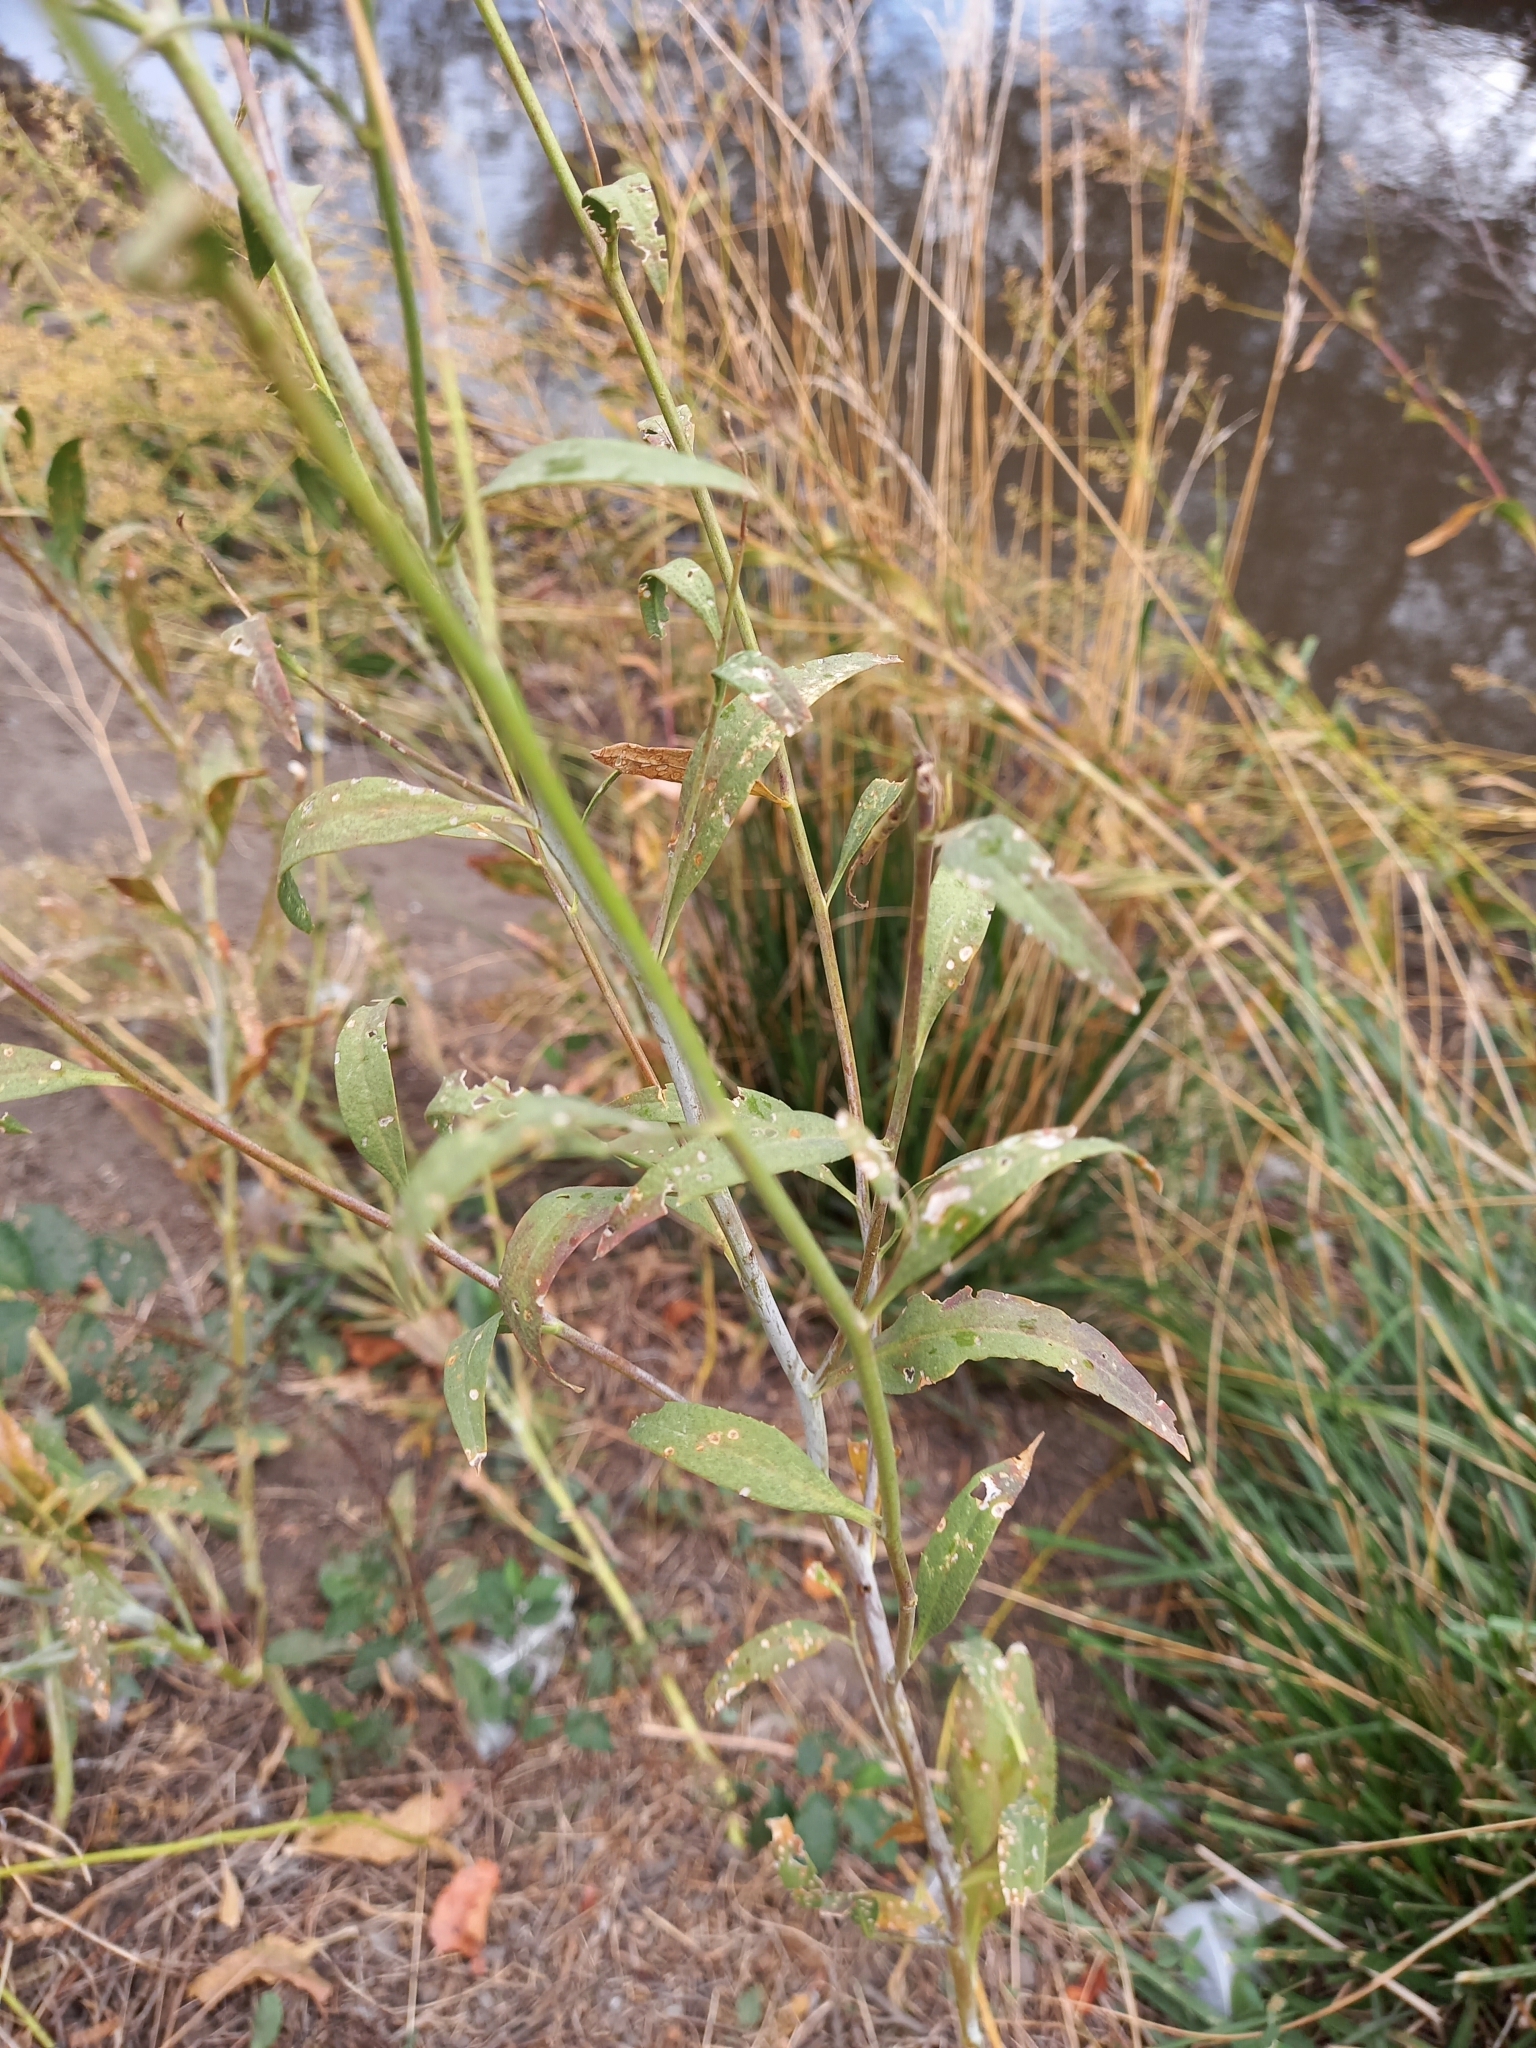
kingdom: Plantae
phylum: Tracheophyta
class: Magnoliopsida
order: Brassicales
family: Brassicaceae
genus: Lepidium
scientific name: Lepidium latifolium
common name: Dittander
